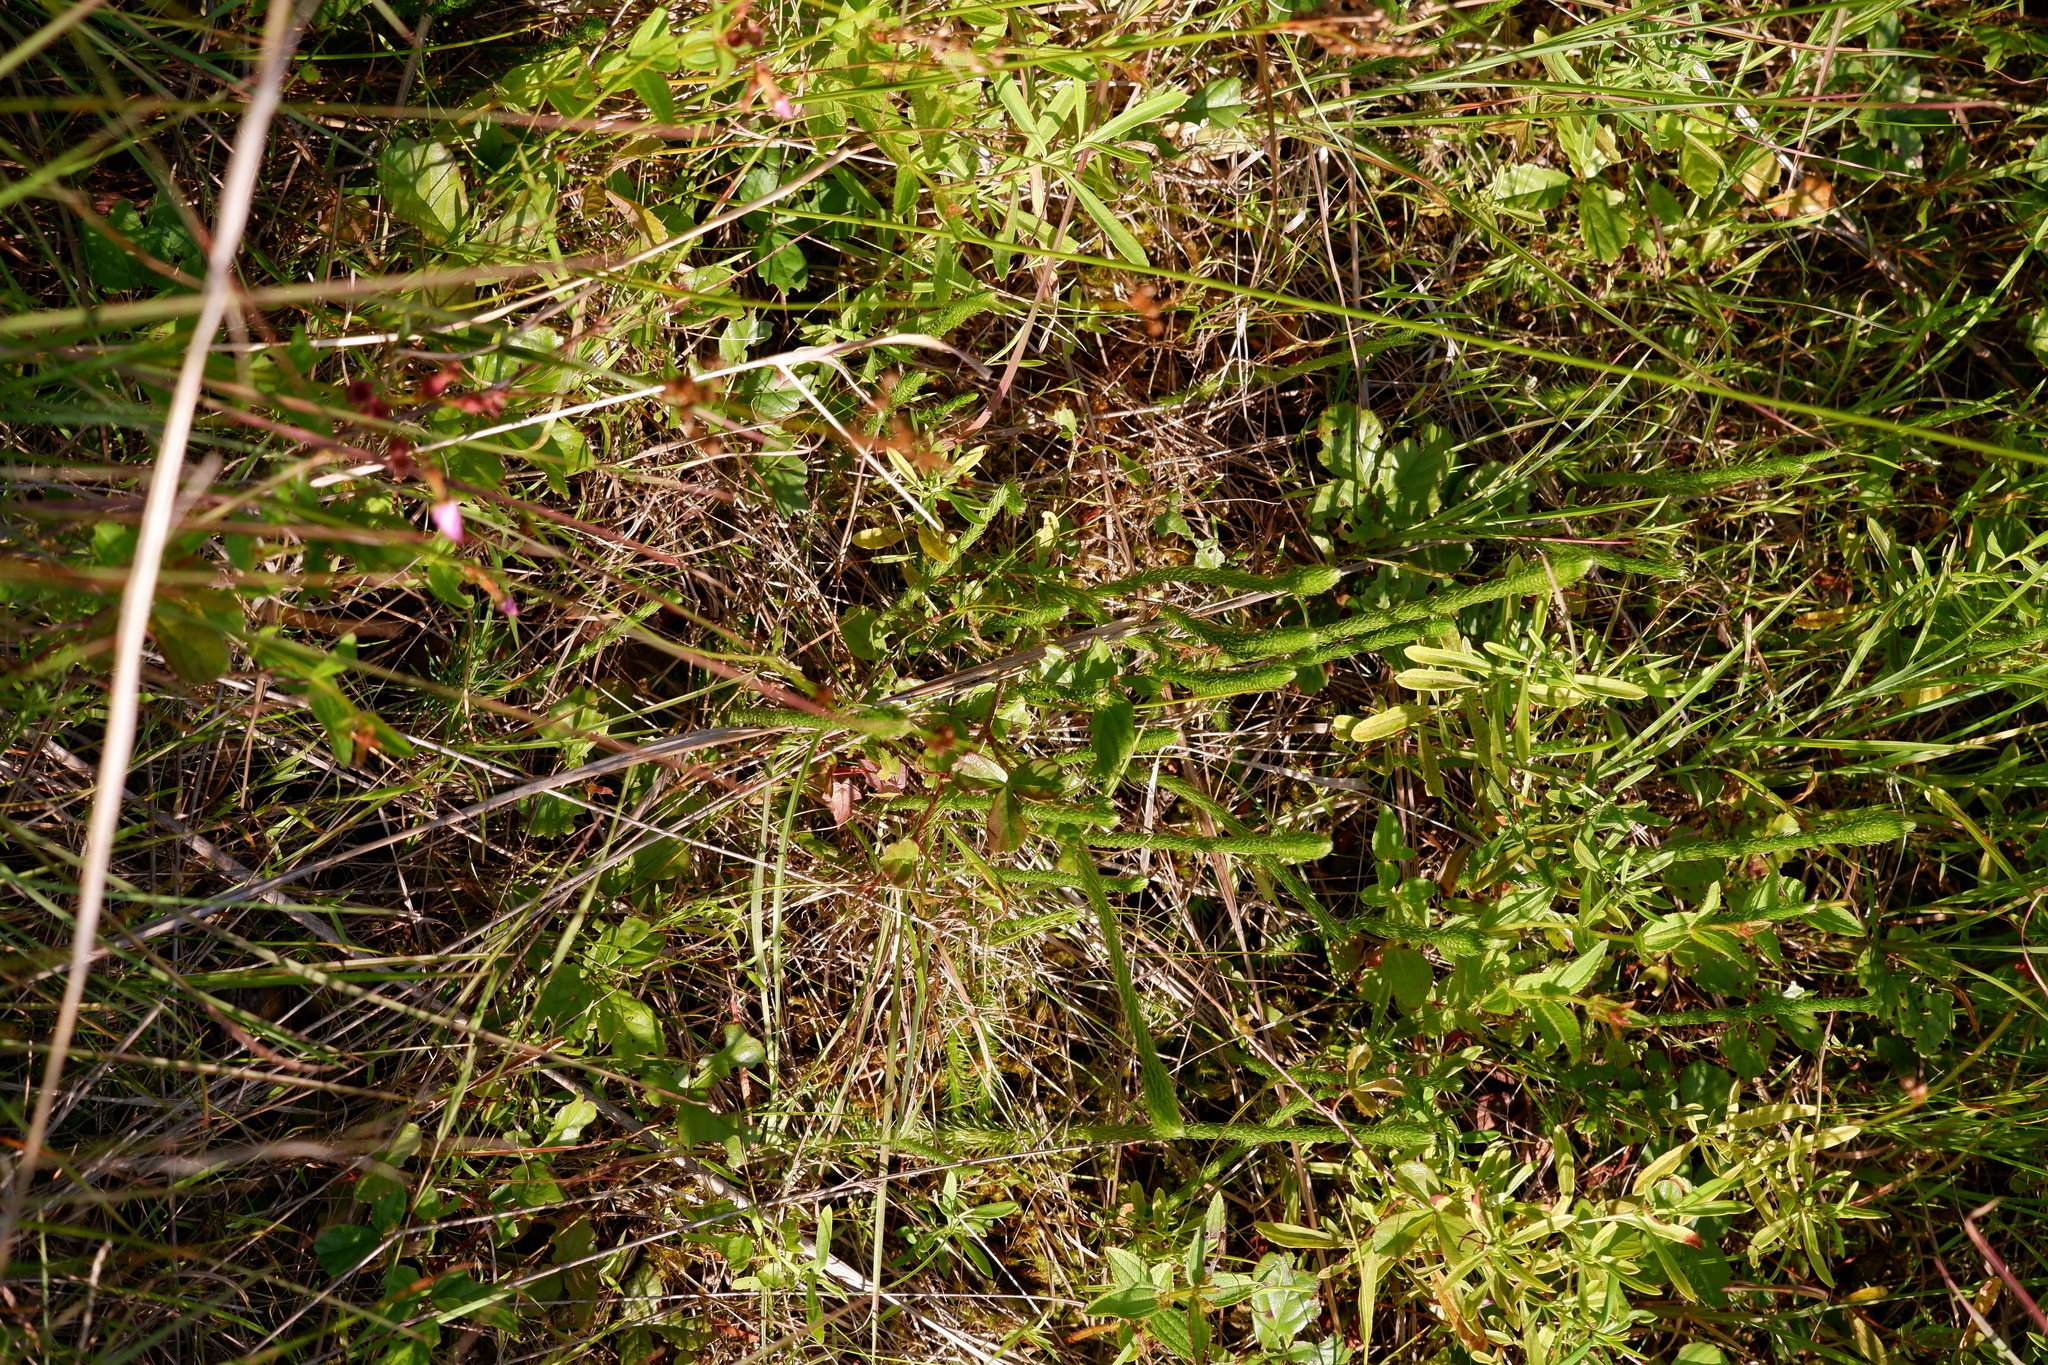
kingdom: Plantae
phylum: Tracheophyta
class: Lycopodiopsida
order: Lycopodiales
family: Lycopodiaceae
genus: Lycopodiella
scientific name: Lycopodiella alopecuroides
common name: Foxtail clubmoss
